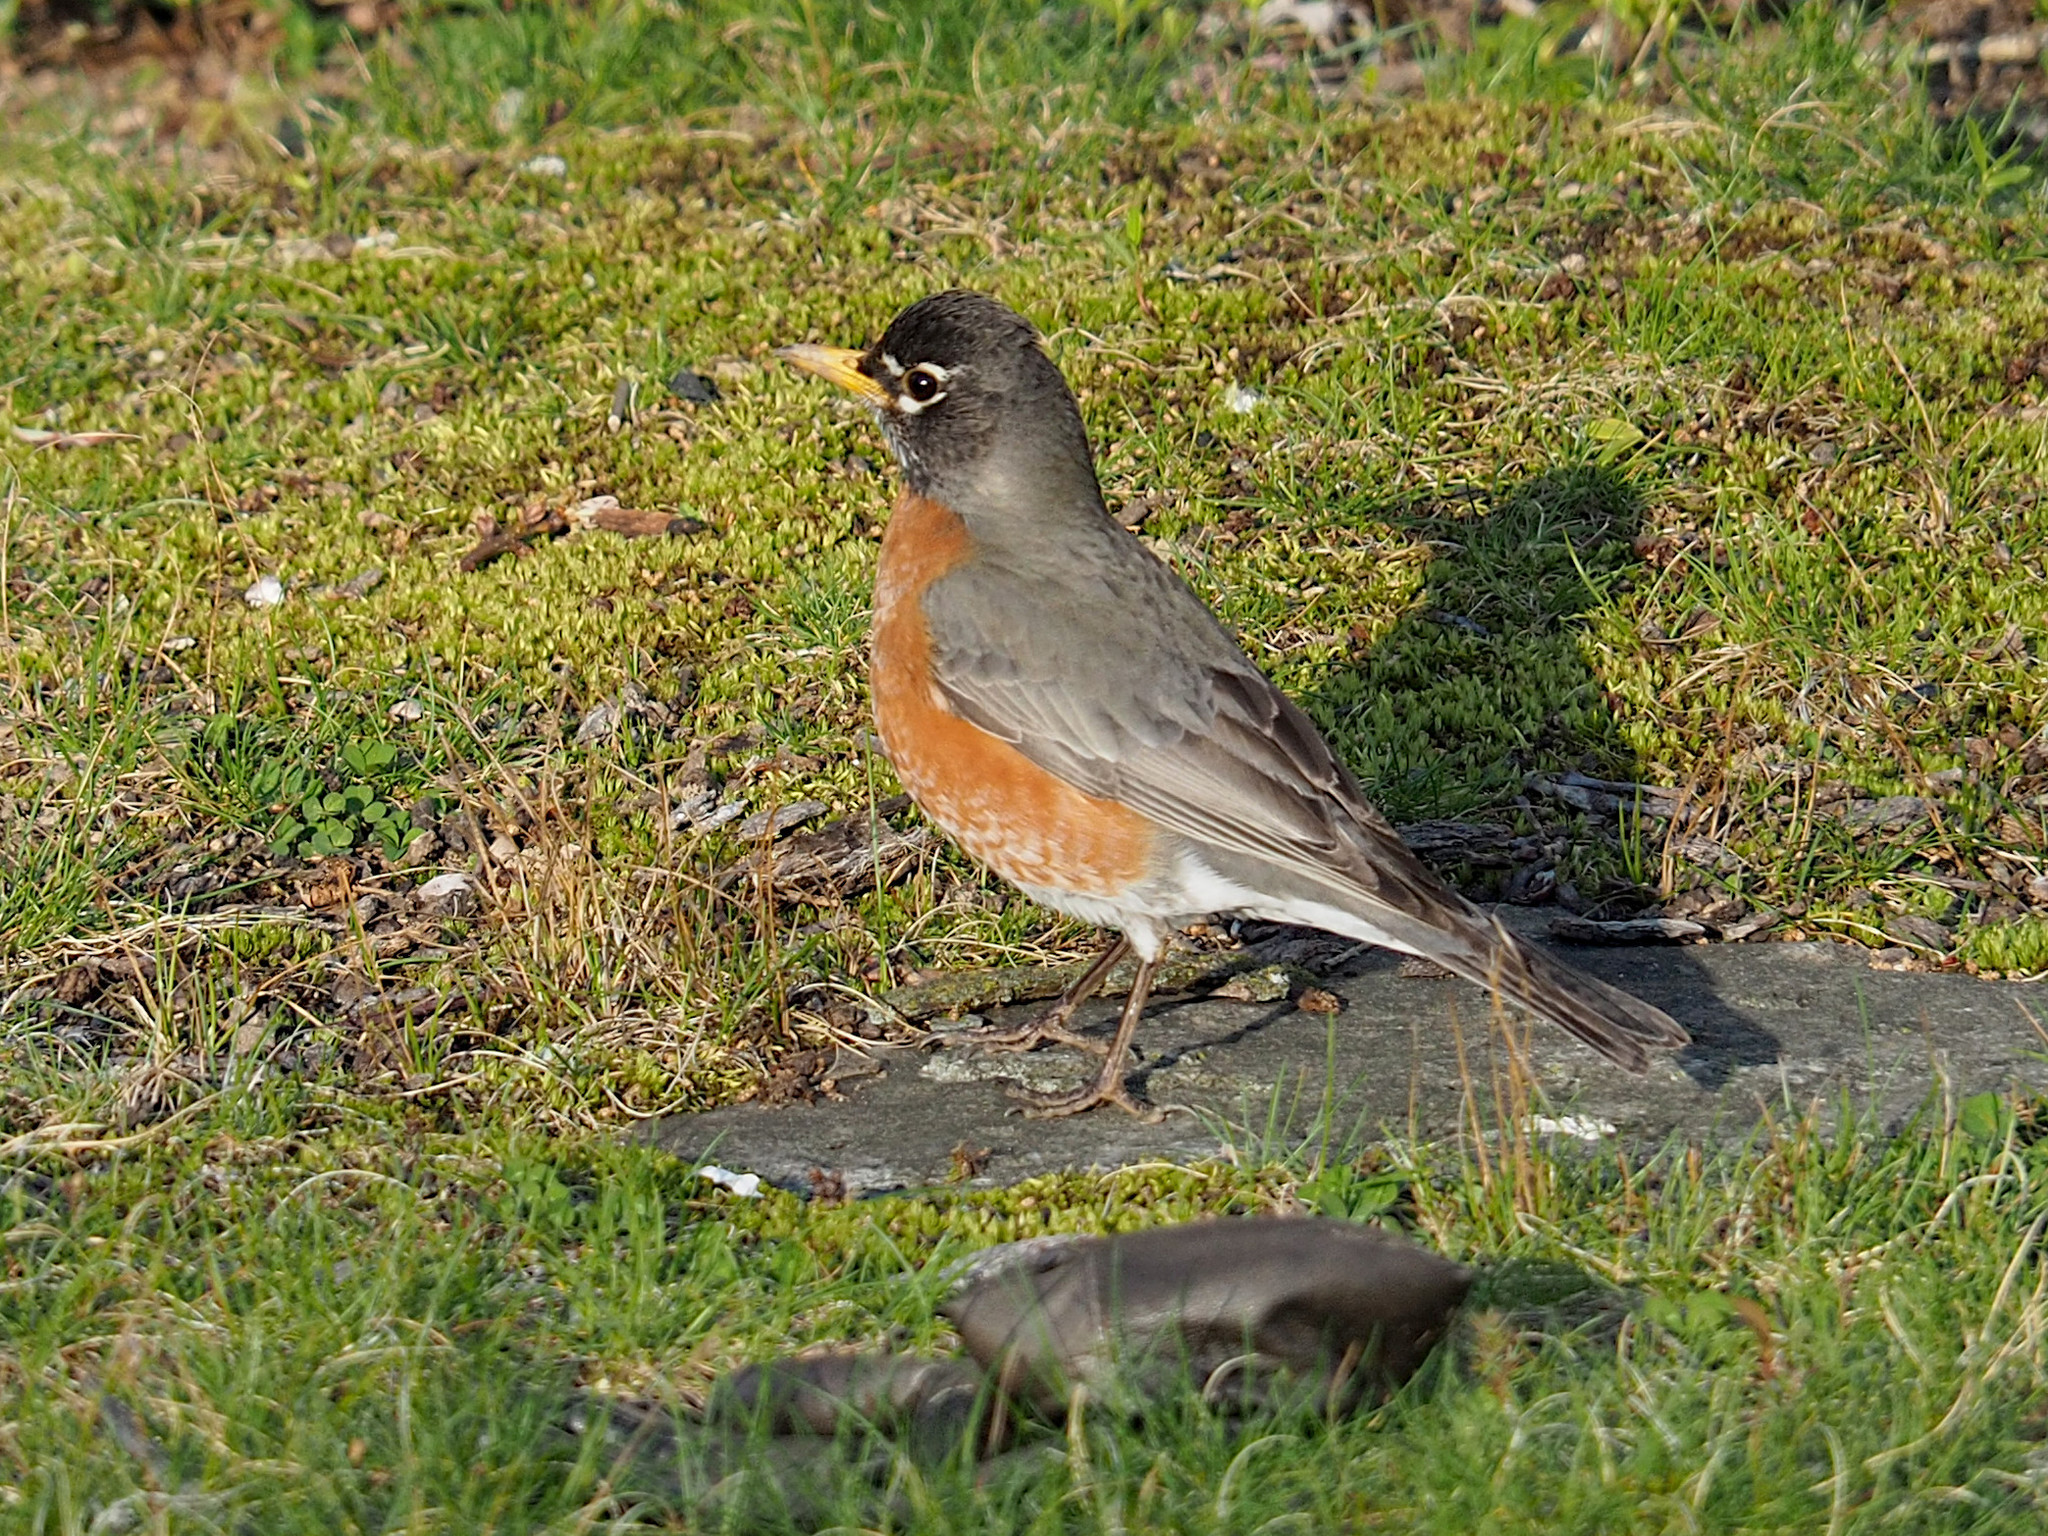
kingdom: Animalia
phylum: Chordata
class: Aves
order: Passeriformes
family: Turdidae
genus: Turdus
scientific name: Turdus migratorius
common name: American robin
